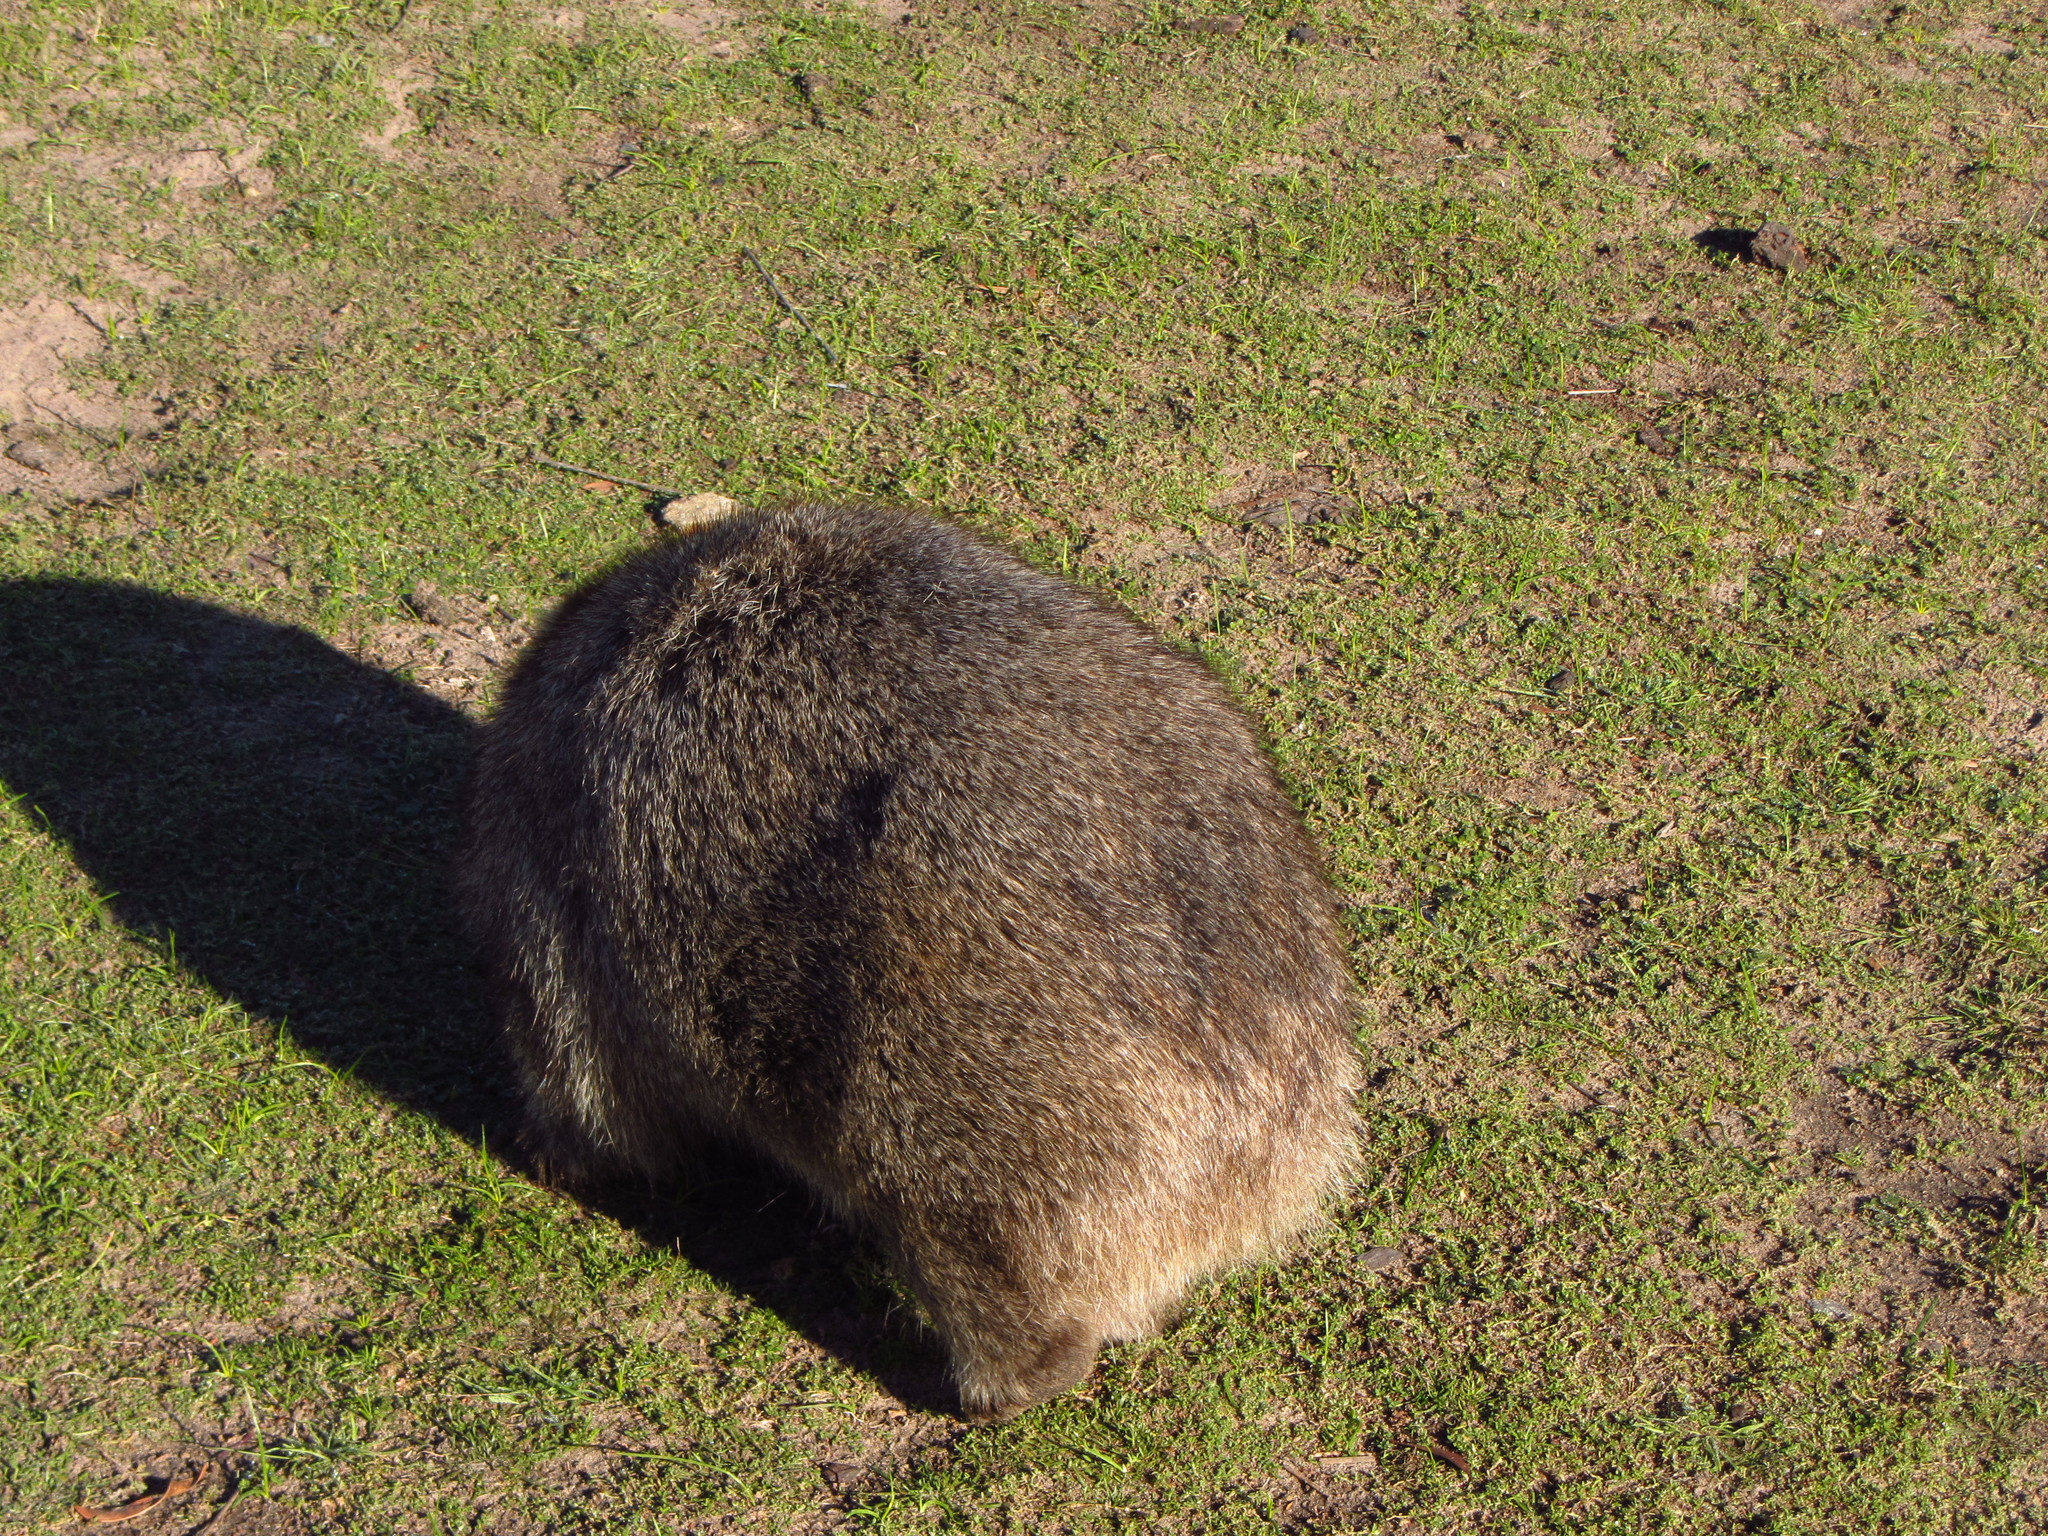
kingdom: Animalia
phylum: Chordata
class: Mammalia
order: Diprotodontia
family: Vombatidae
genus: Vombatus
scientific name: Vombatus ursinus
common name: Common wombat
